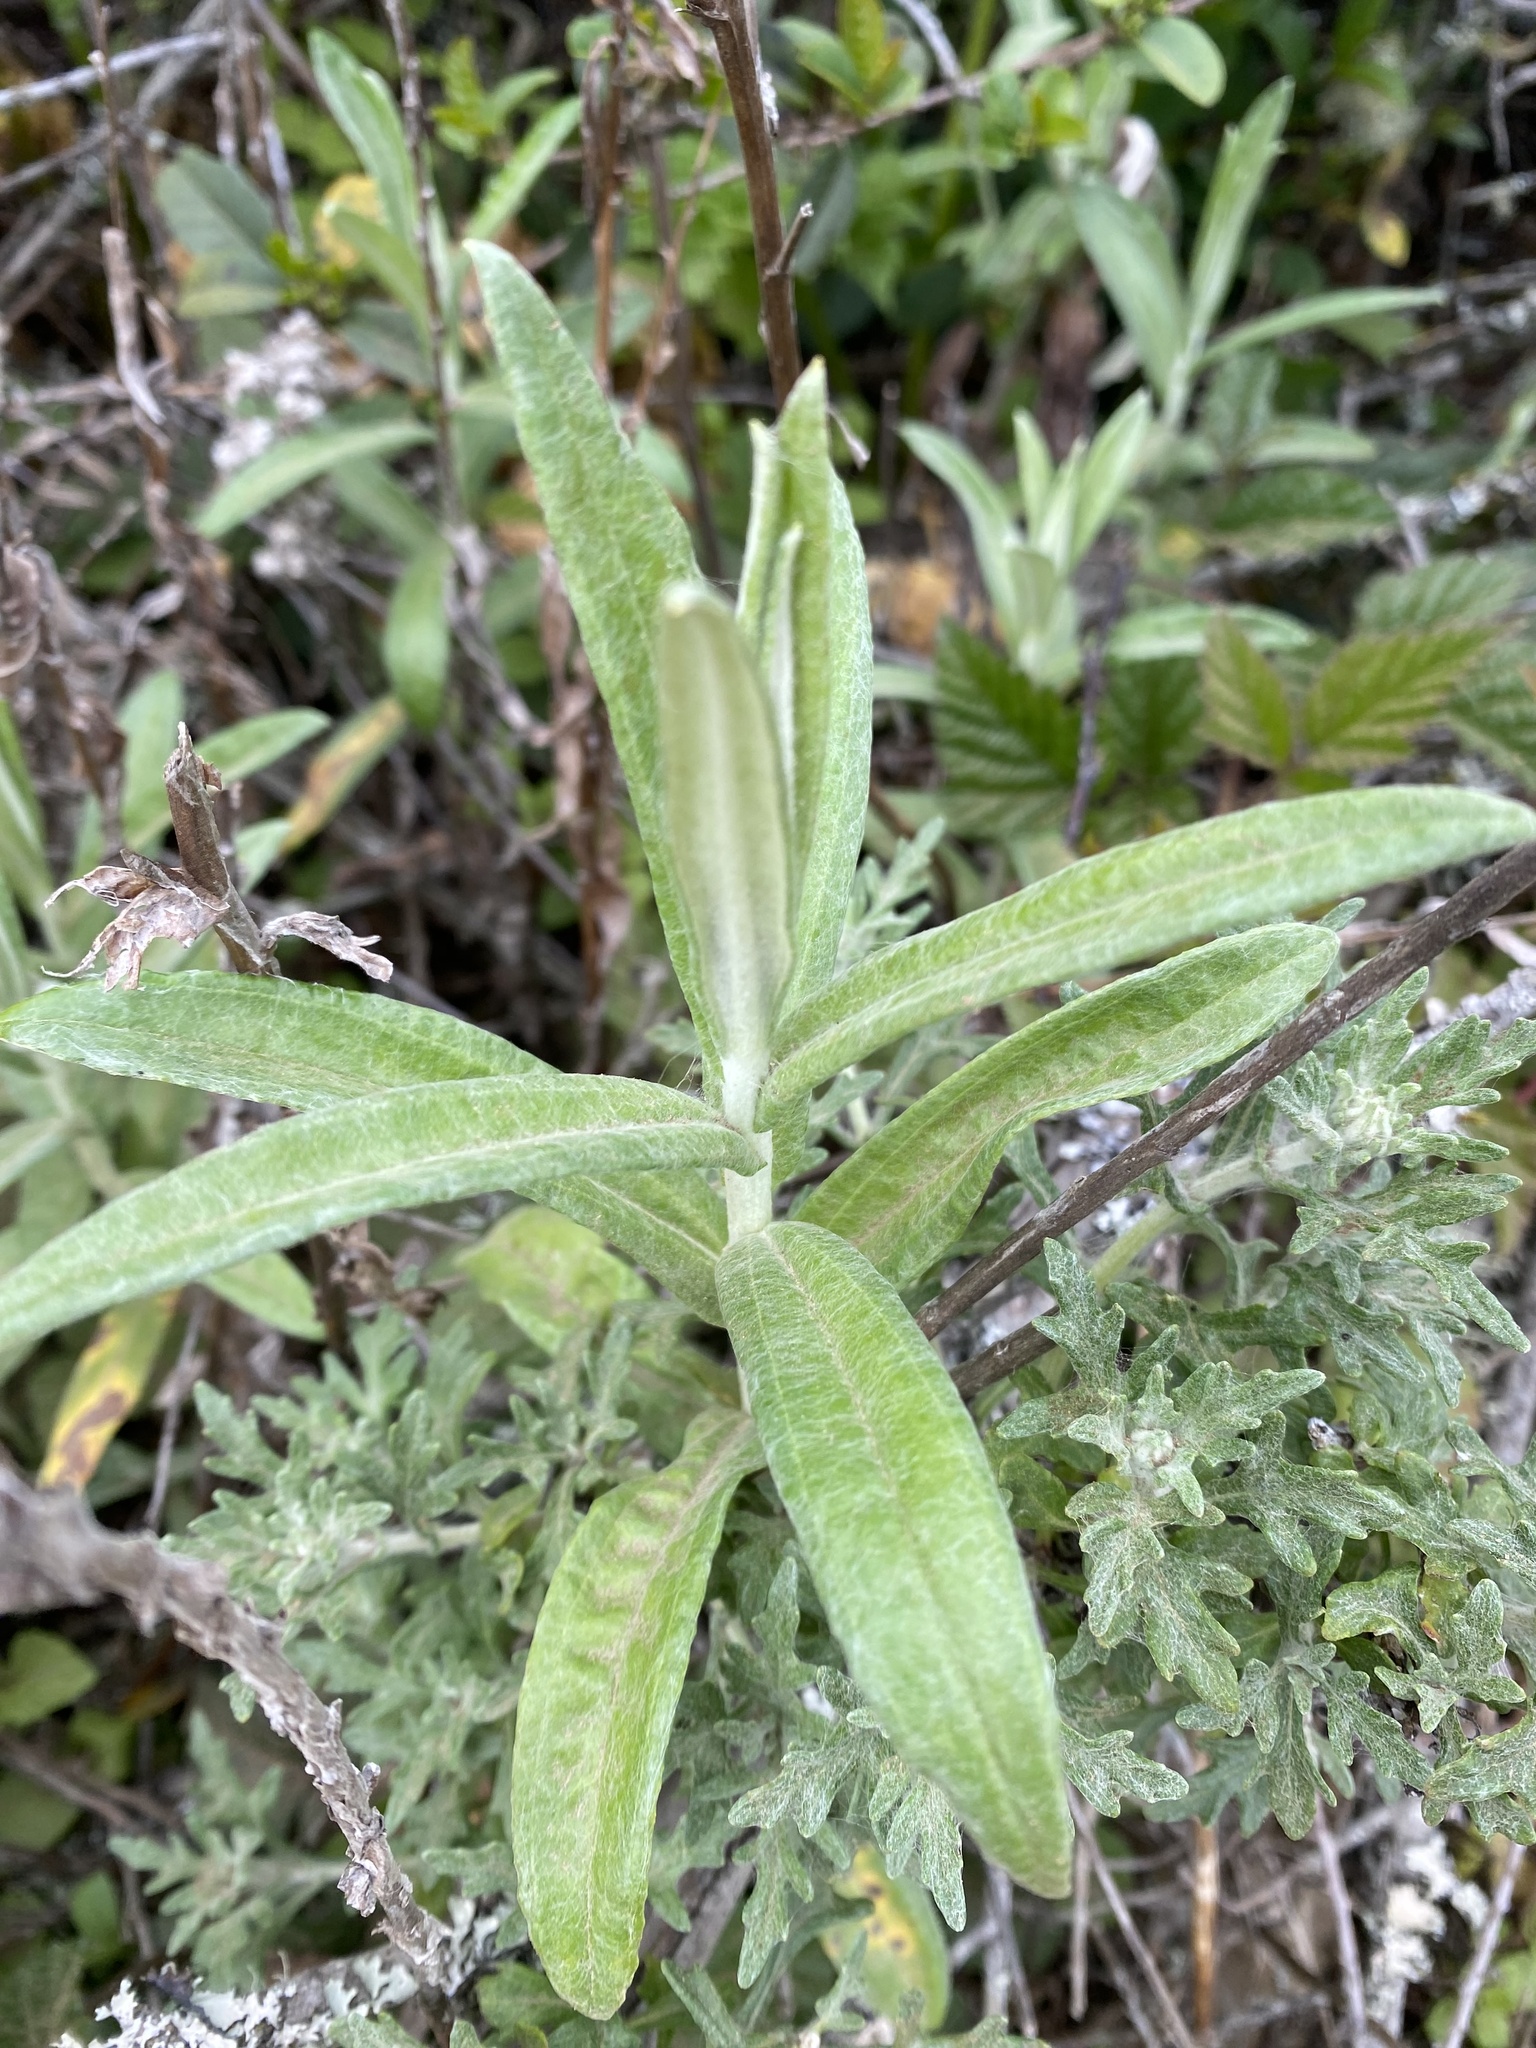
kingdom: Plantae
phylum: Tracheophyta
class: Magnoliopsida
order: Asterales
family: Asteraceae
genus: Anaphalis
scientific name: Anaphalis margaritacea
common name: Pearly everlasting
